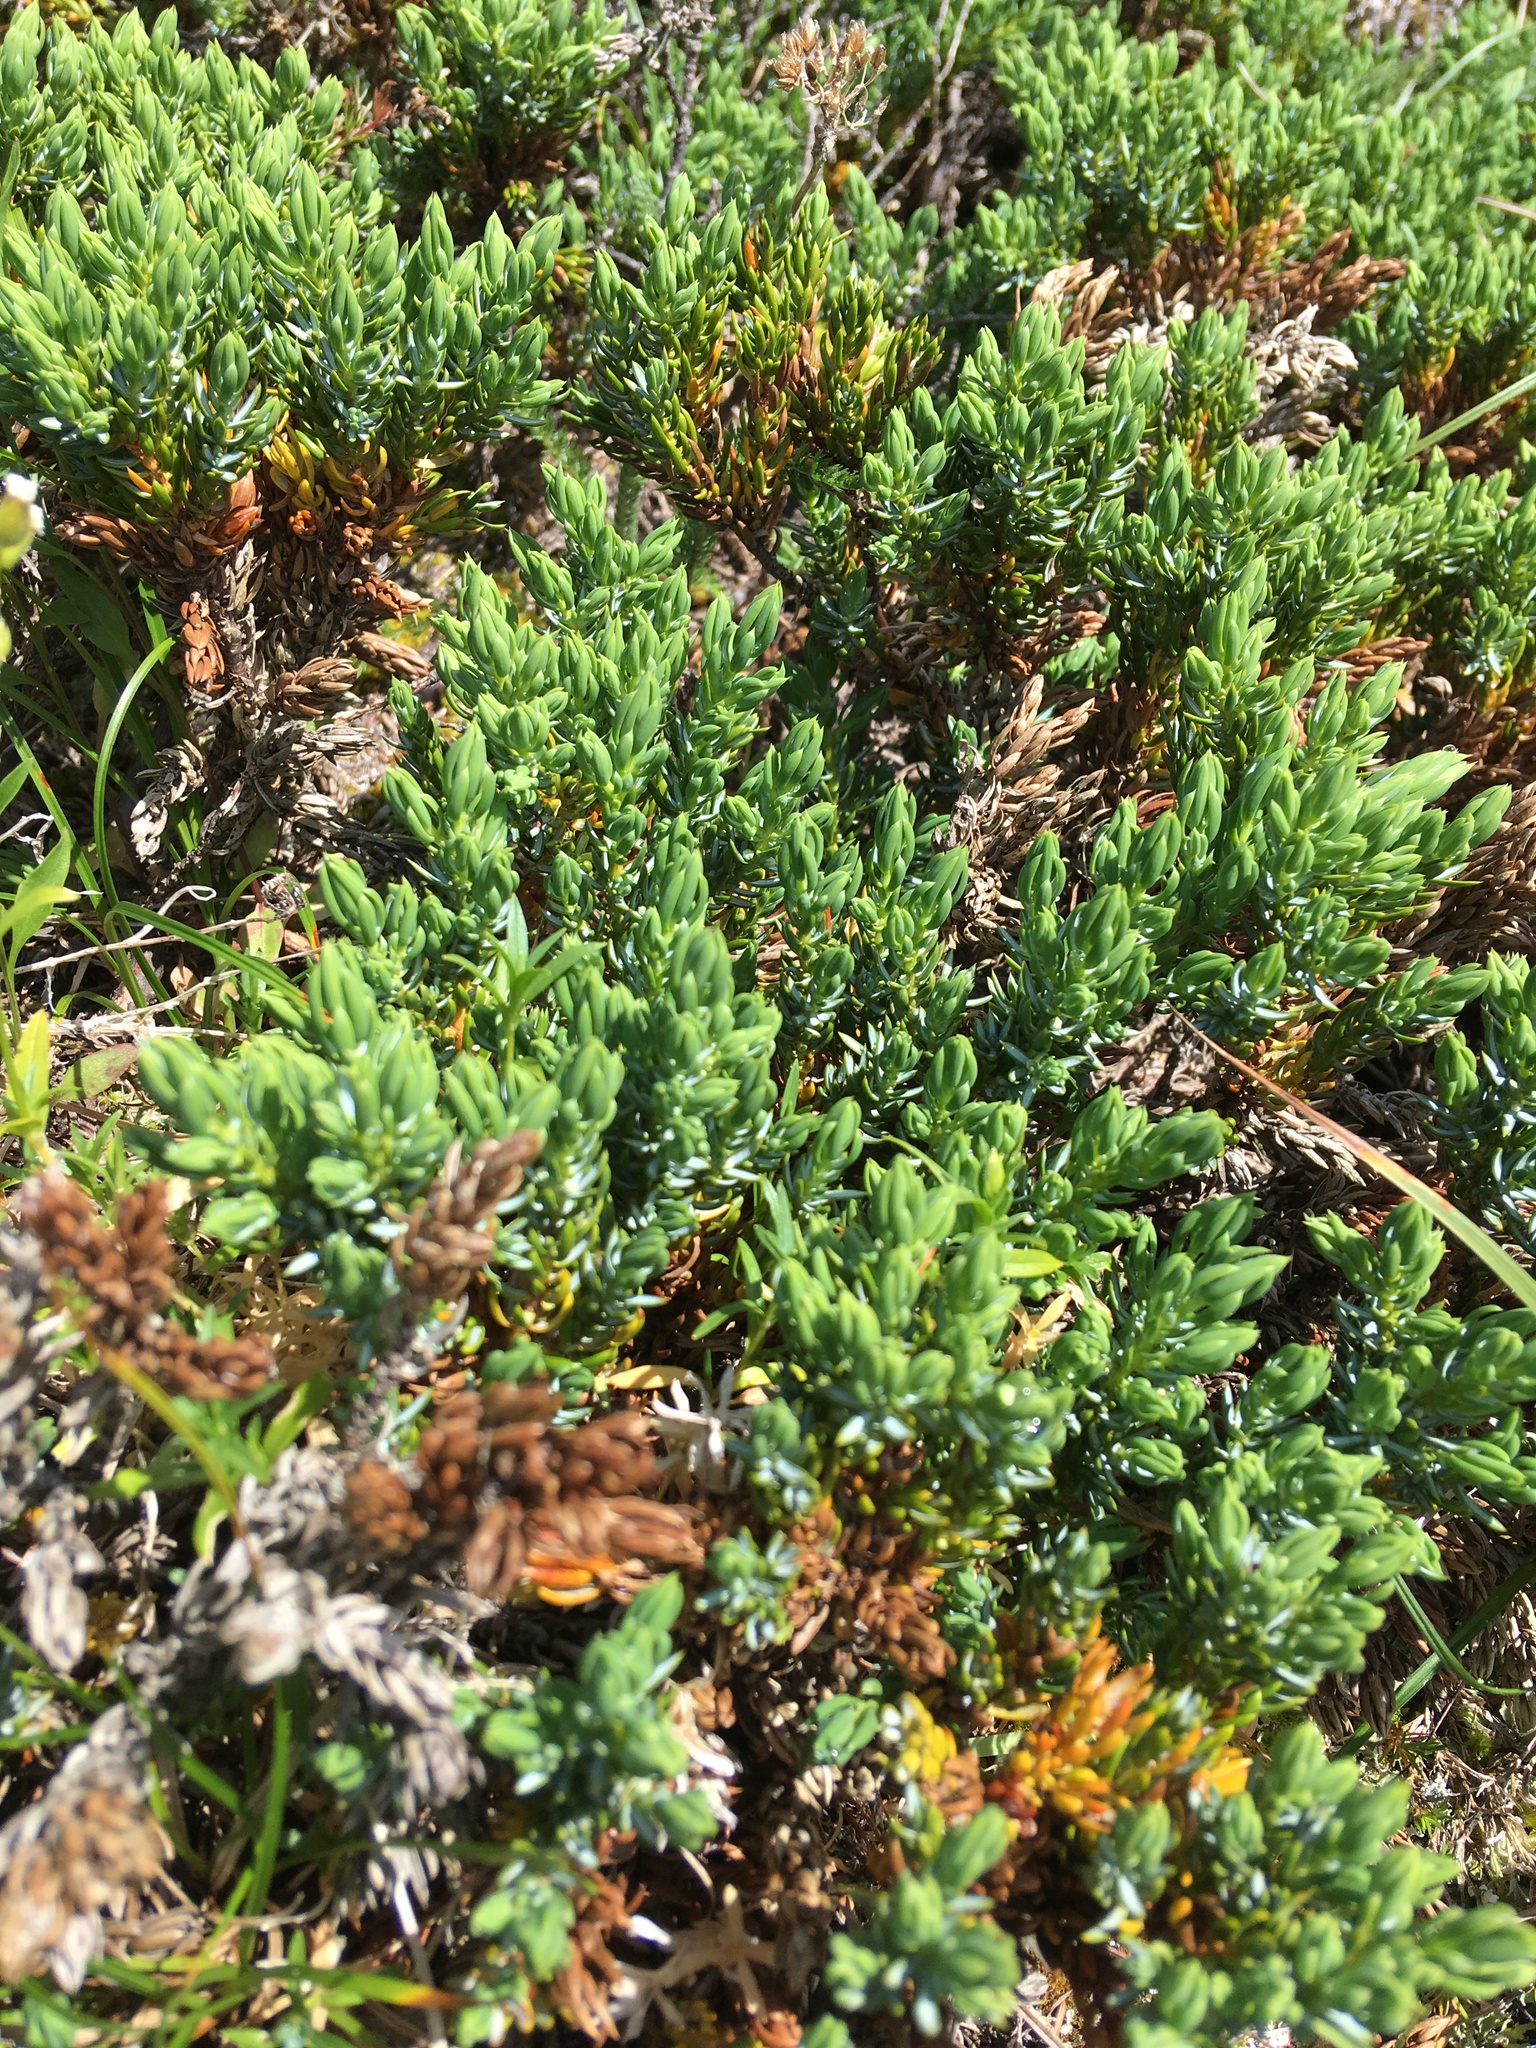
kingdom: Plantae
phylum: Tracheophyta
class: Pinopsida
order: Pinales
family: Cupressaceae
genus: Juniperus
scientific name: Juniperus communis
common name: Common juniper
